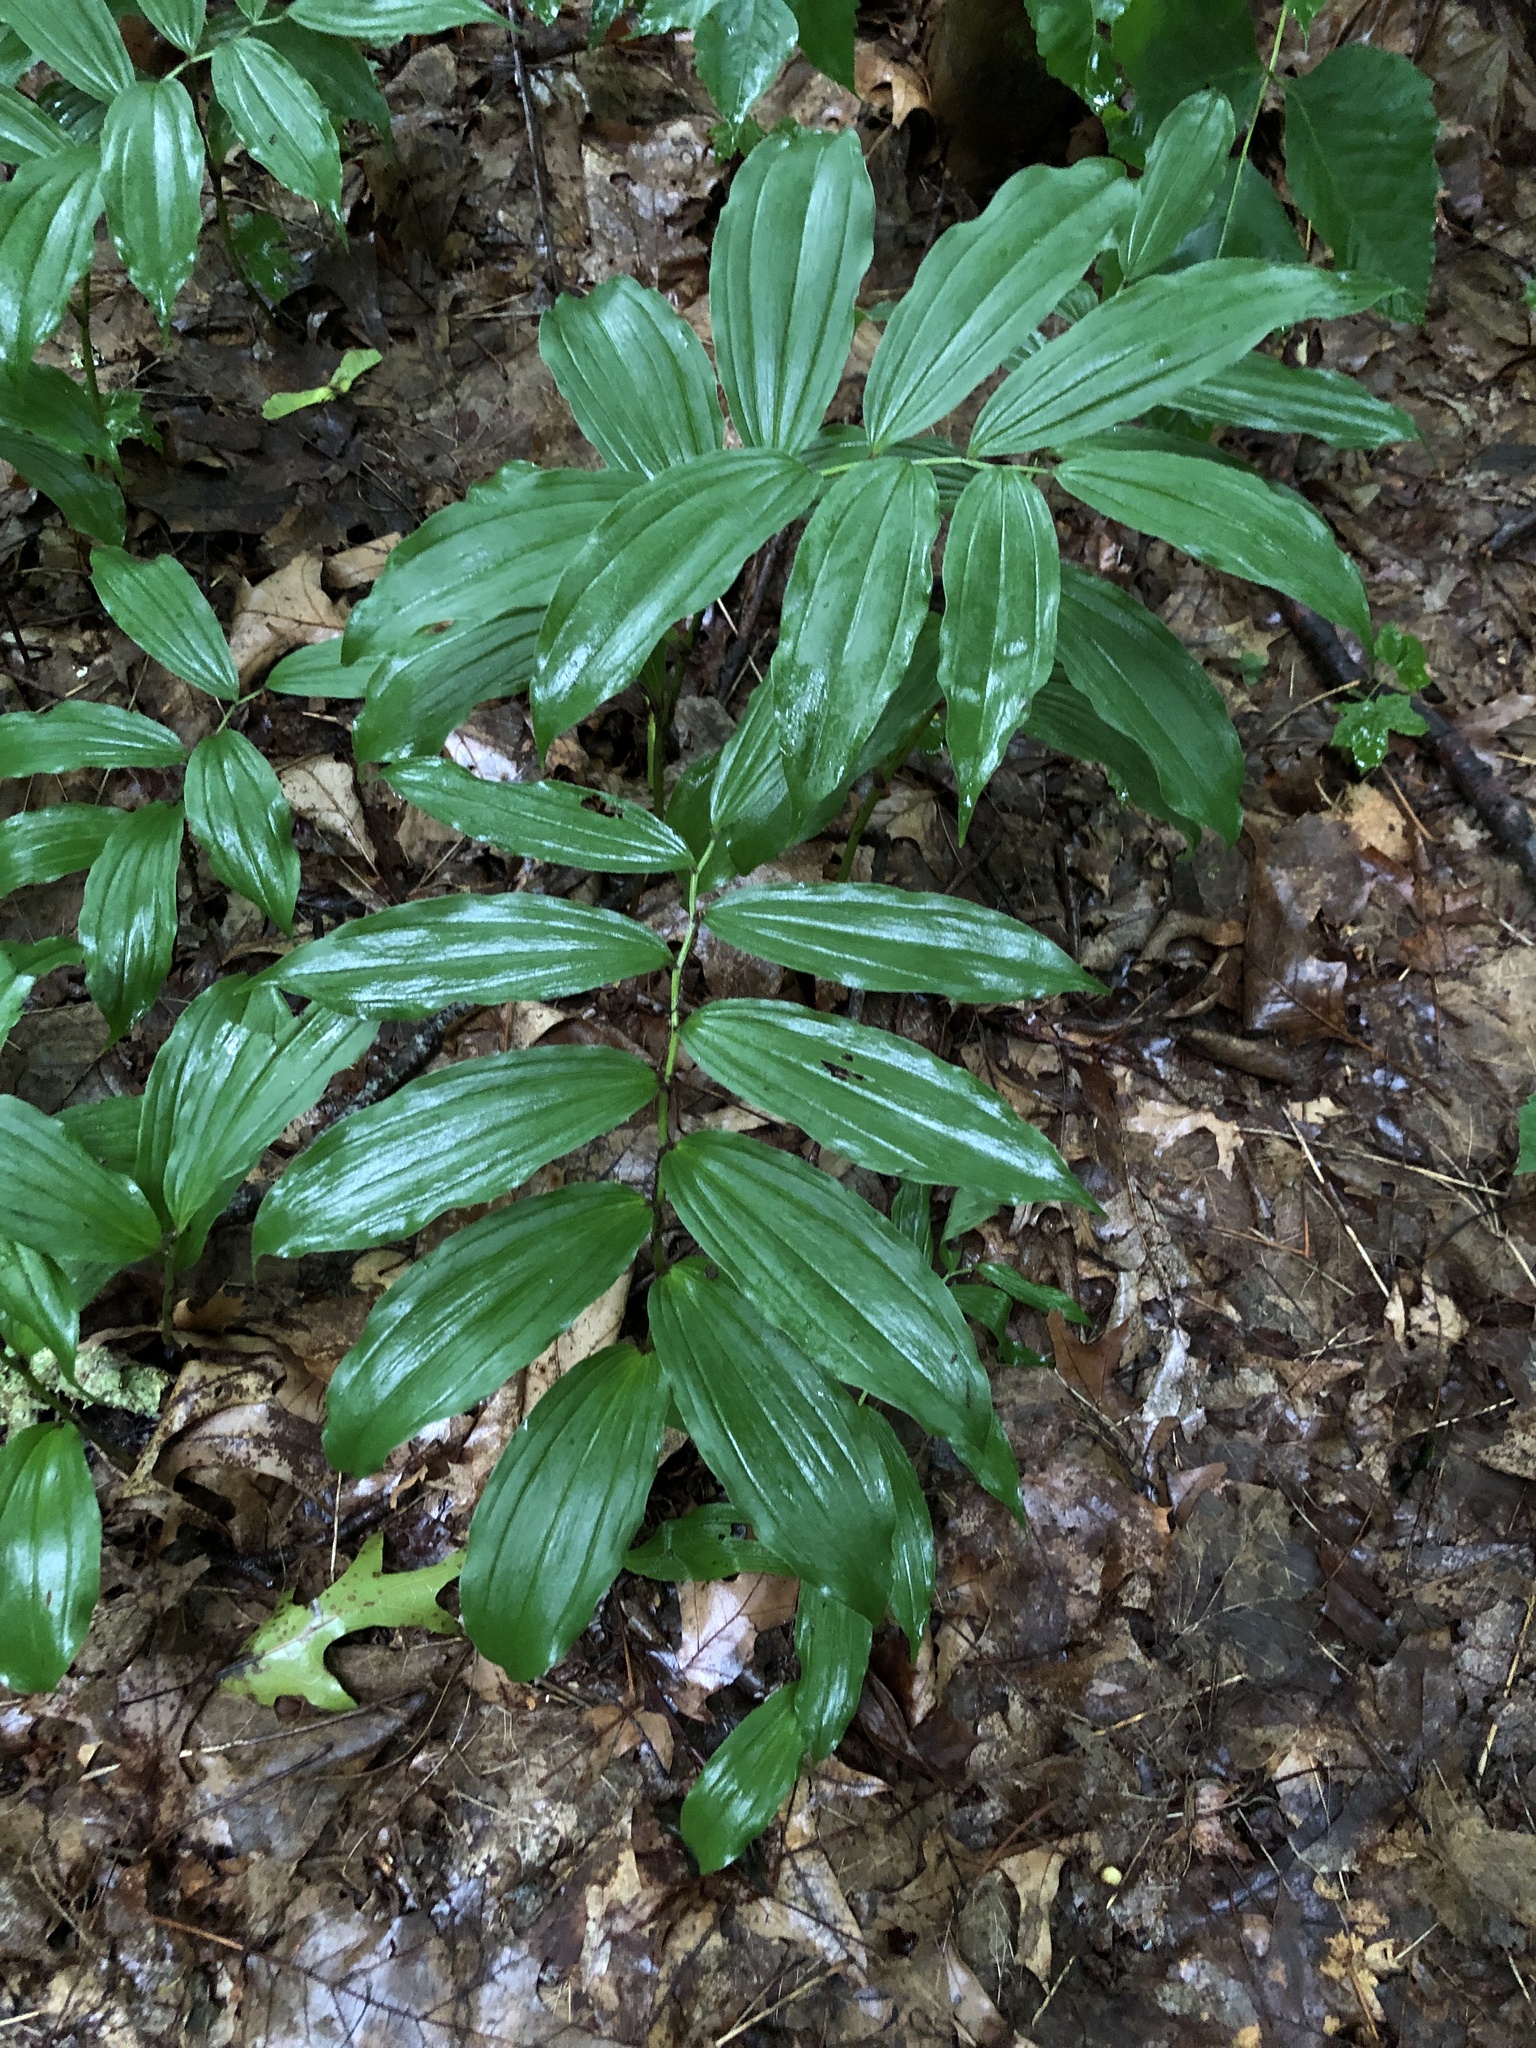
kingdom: Plantae
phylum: Tracheophyta
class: Liliopsida
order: Asparagales
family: Asparagaceae
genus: Maianthemum
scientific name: Maianthemum racemosum
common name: False spikenard
